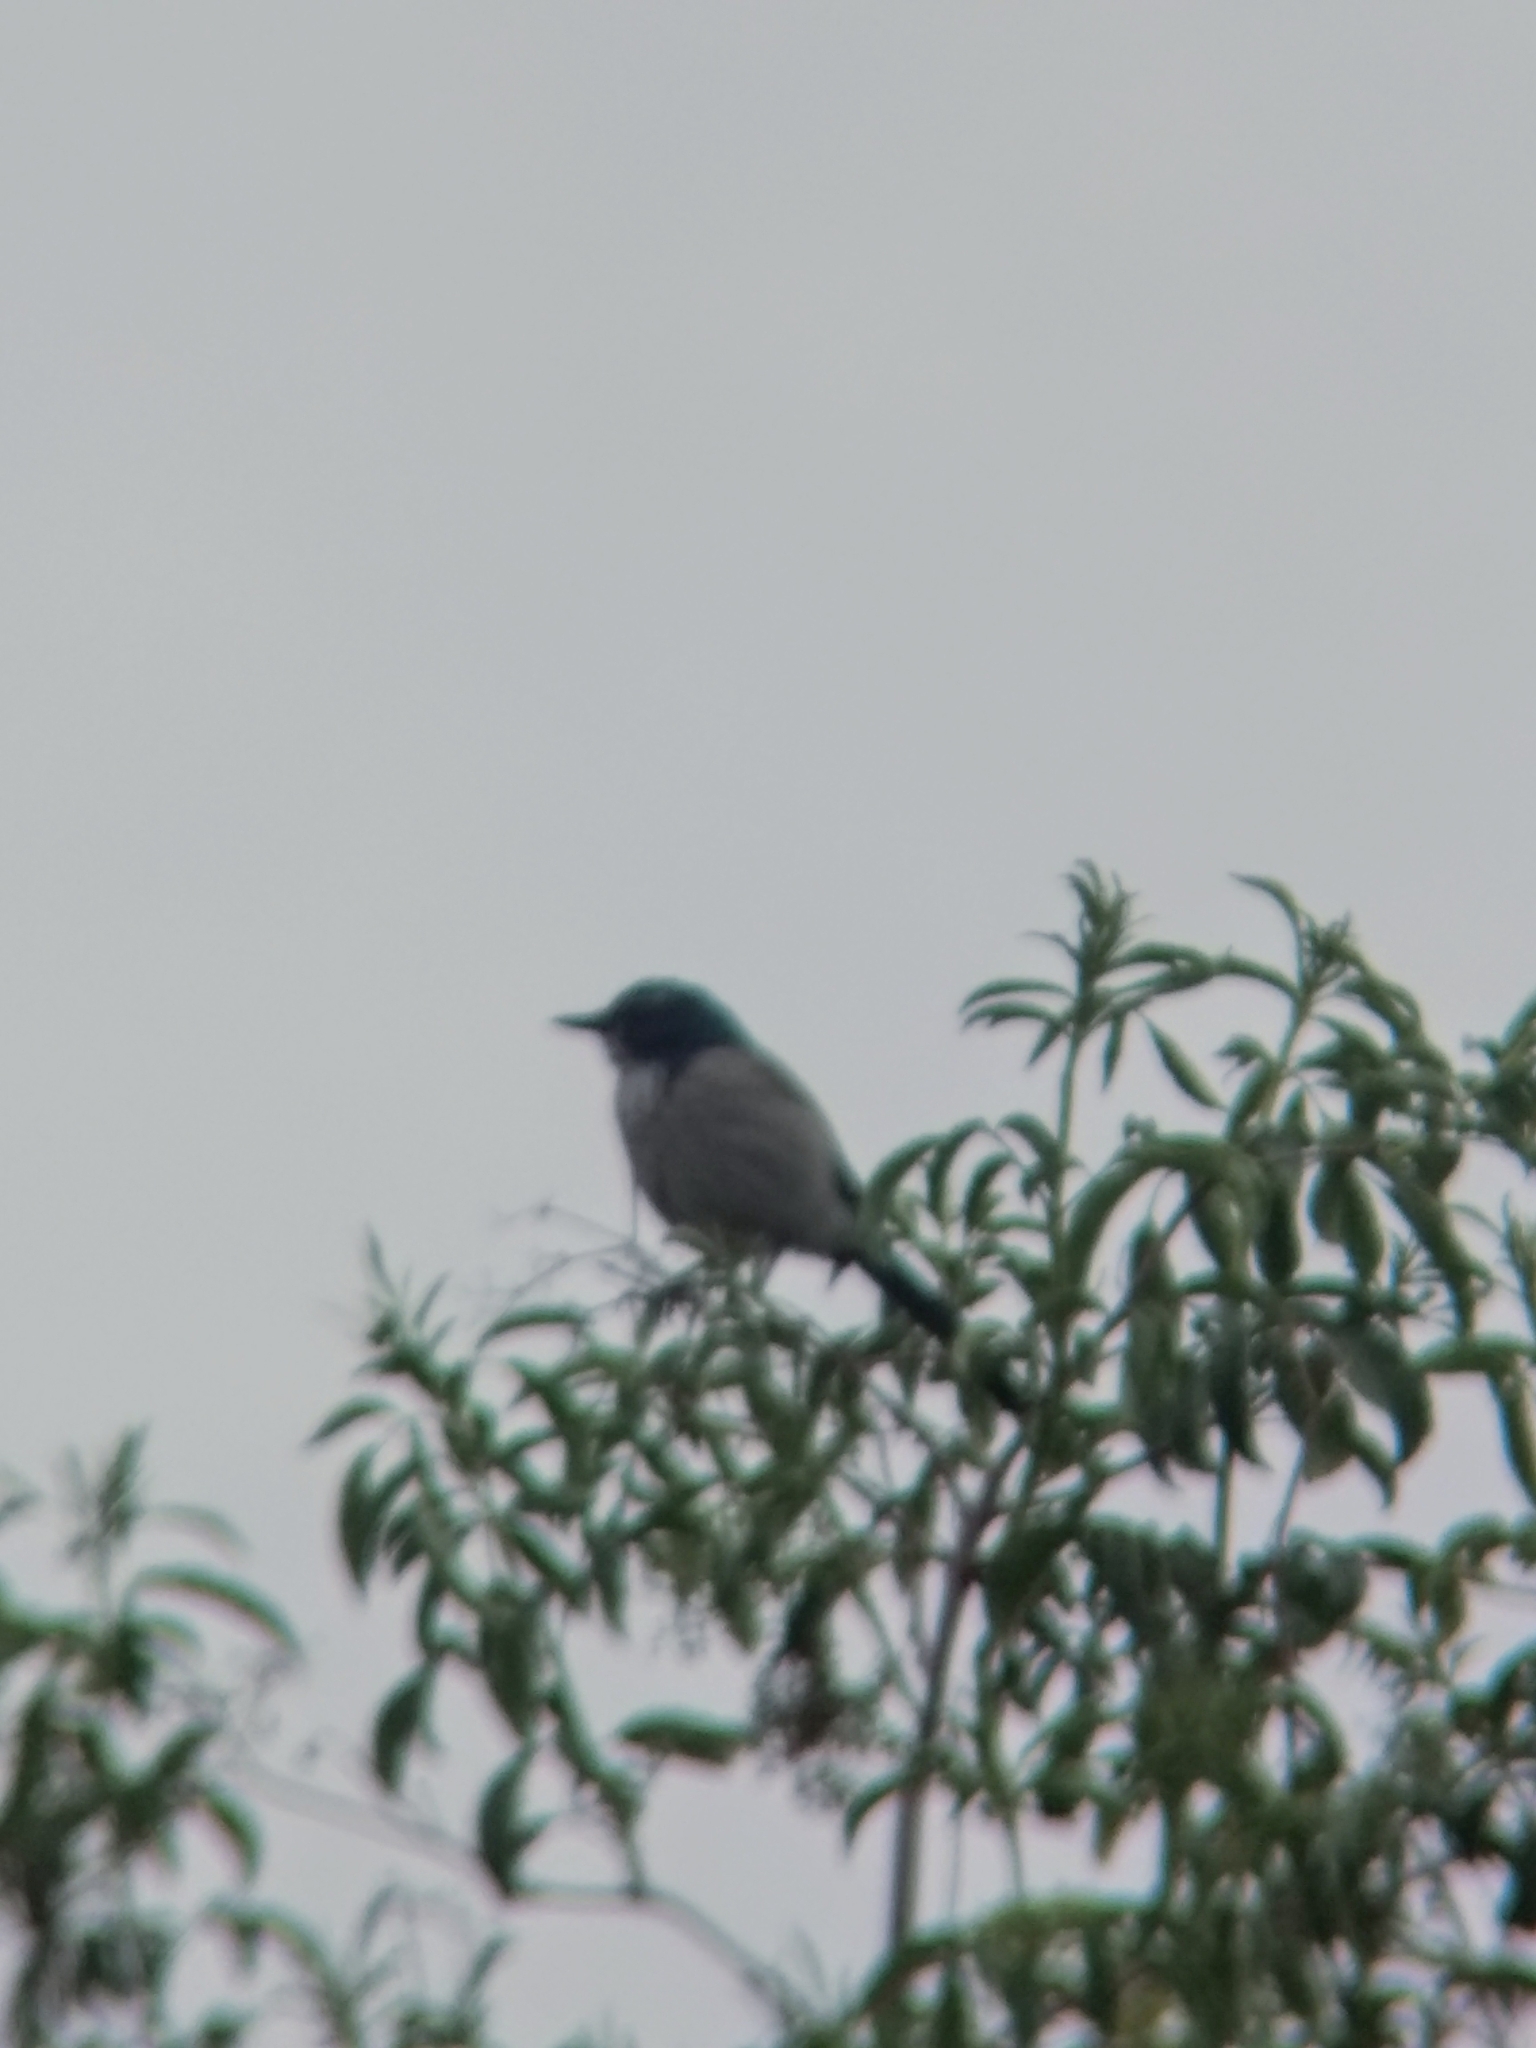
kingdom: Animalia
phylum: Chordata
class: Aves
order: Passeriformes
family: Corvidae
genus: Aphelocoma
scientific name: Aphelocoma californica
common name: California scrub-jay
